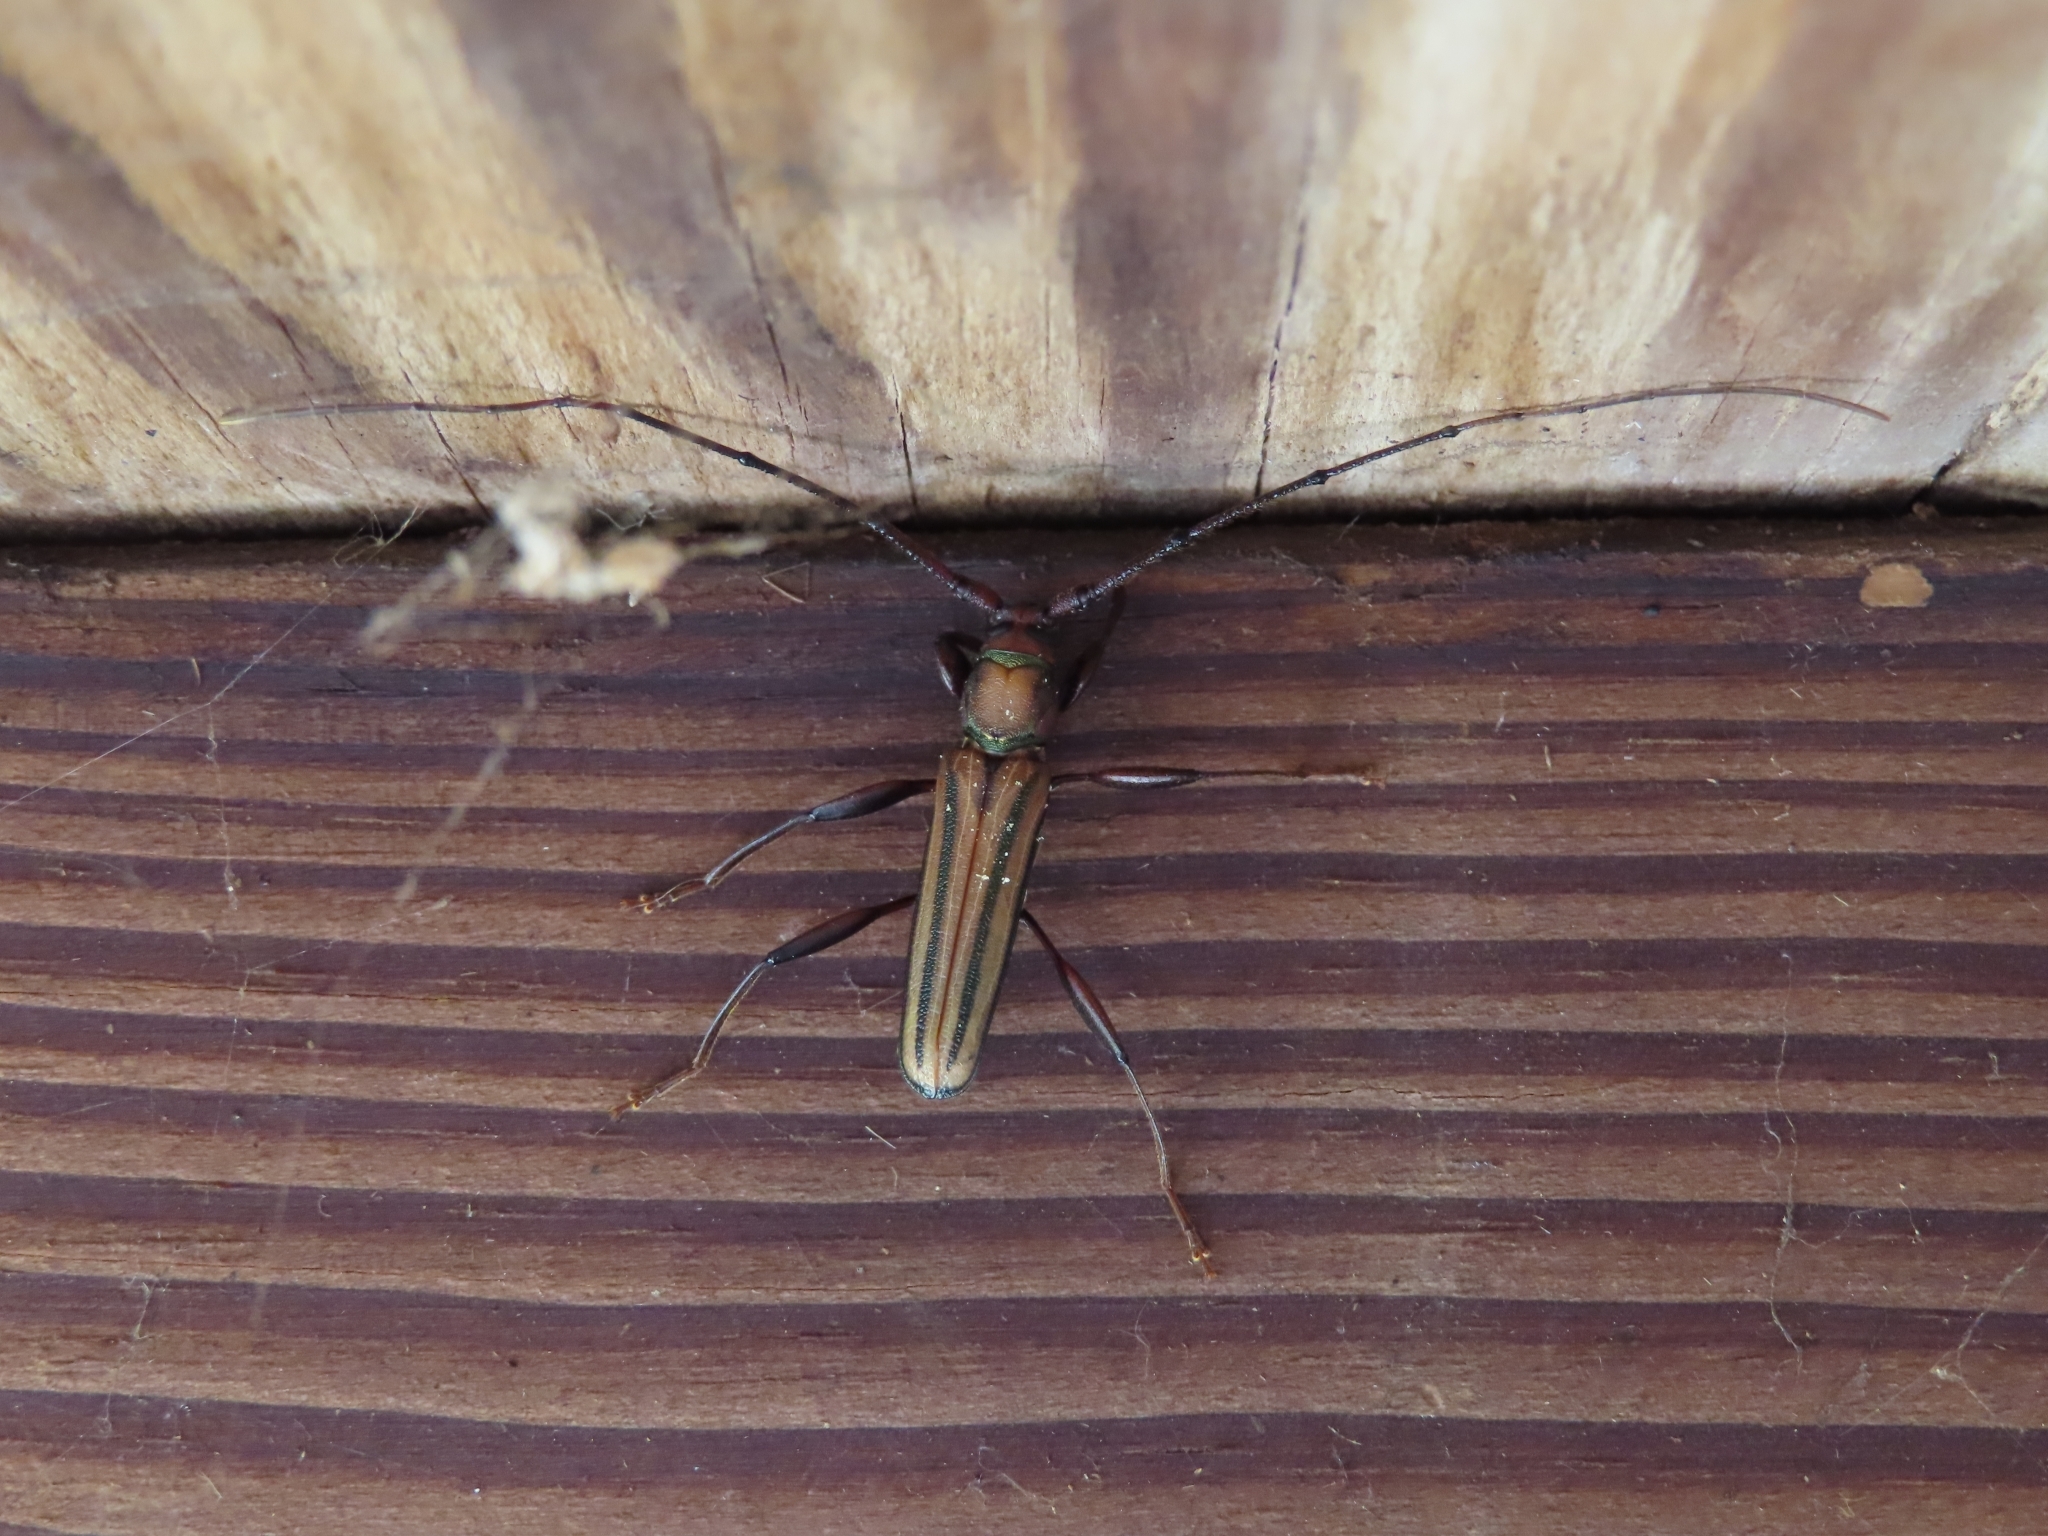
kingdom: Animalia
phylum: Arthropoda
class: Insecta
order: Coleoptera
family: Cerambycidae
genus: Xystrocera
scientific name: Xystrocera globosa
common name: Peach-tree longhorn
